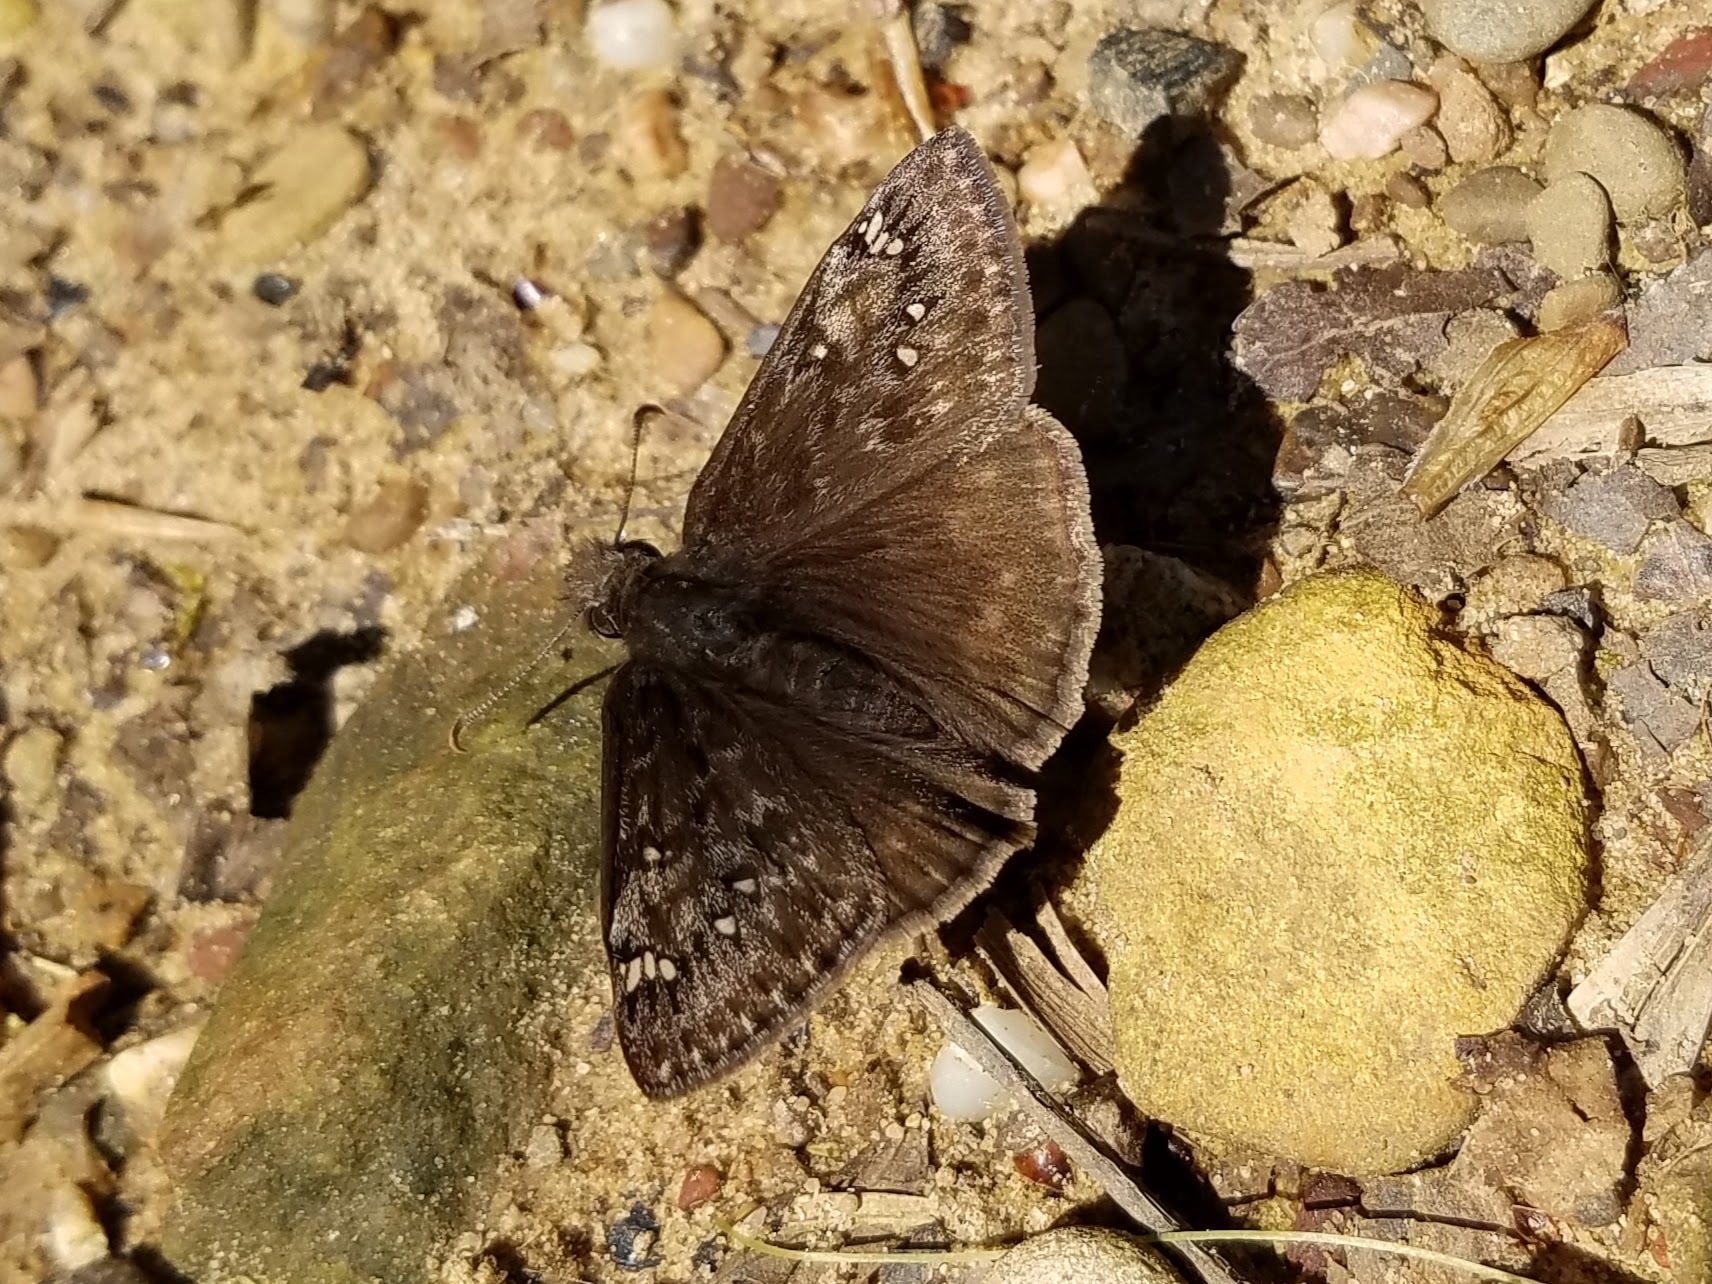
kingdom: Animalia
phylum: Arthropoda
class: Insecta
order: Lepidoptera
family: Hesperiidae
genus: Erynnis
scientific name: Erynnis juvenalis
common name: Juvenal's duskywing
